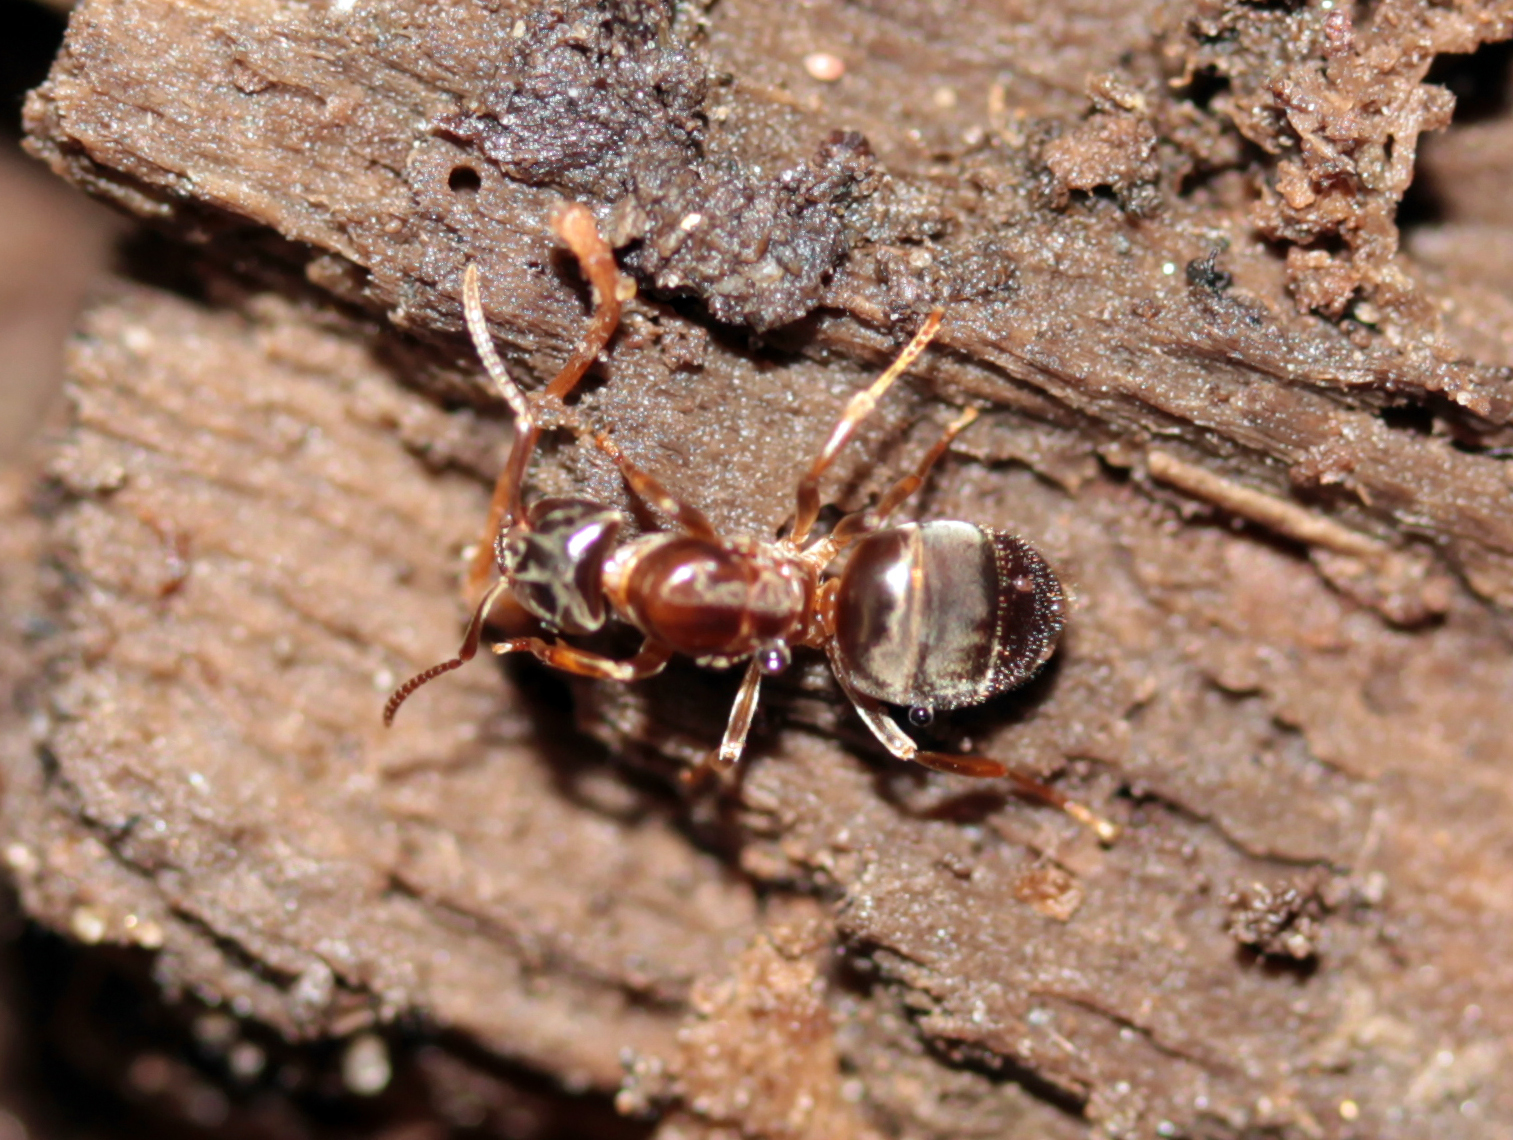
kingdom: Animalia
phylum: Arthropoda
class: Insecta
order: Hymenoptera
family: Formicidae
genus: Lasius
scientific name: Lasius aphidicola
